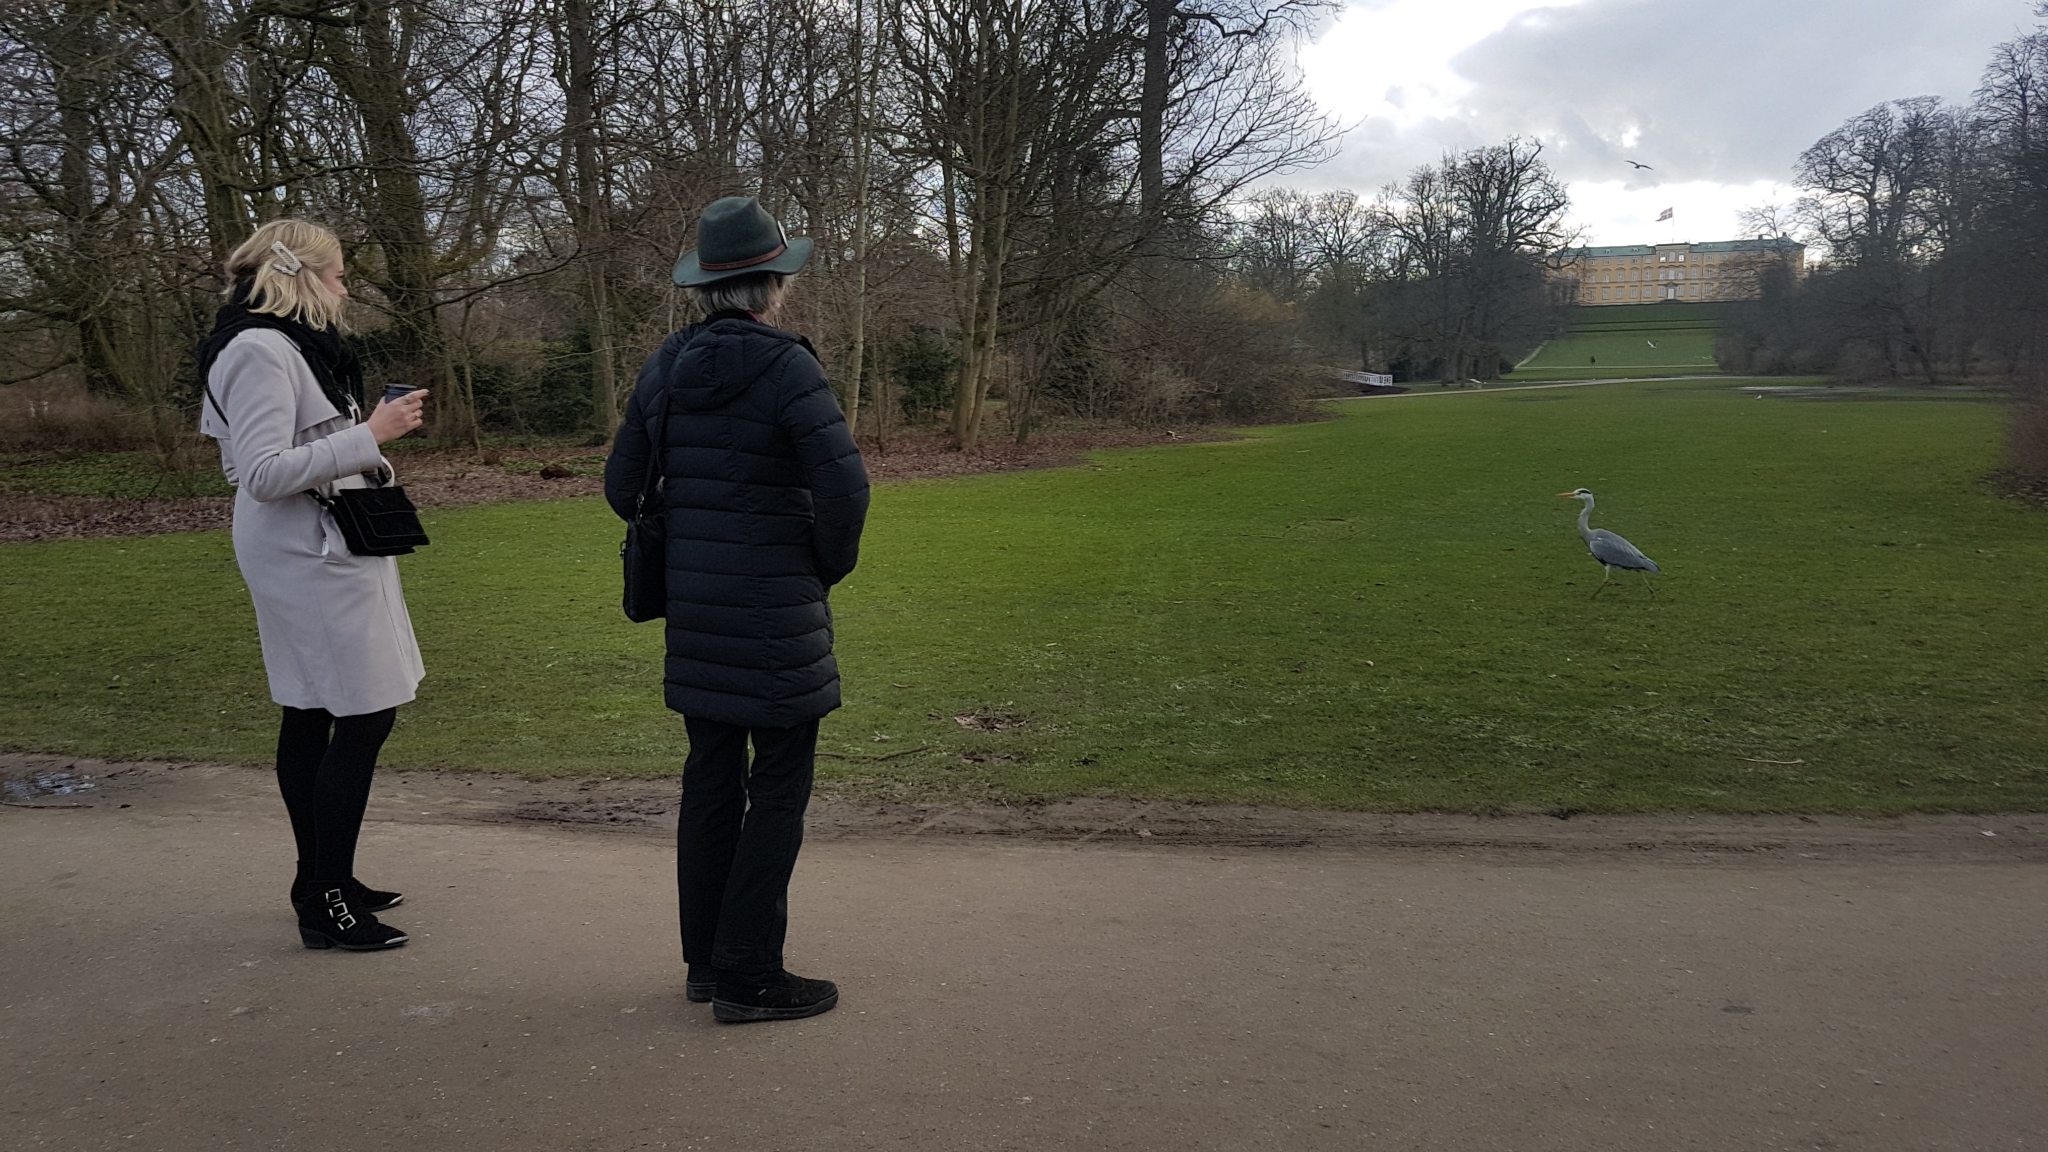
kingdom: Animalia
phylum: Chordata
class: Aves
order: Pelecaniformes
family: Ardeidae
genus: Ardea
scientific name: Ardea cinerea
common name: Grey heron
